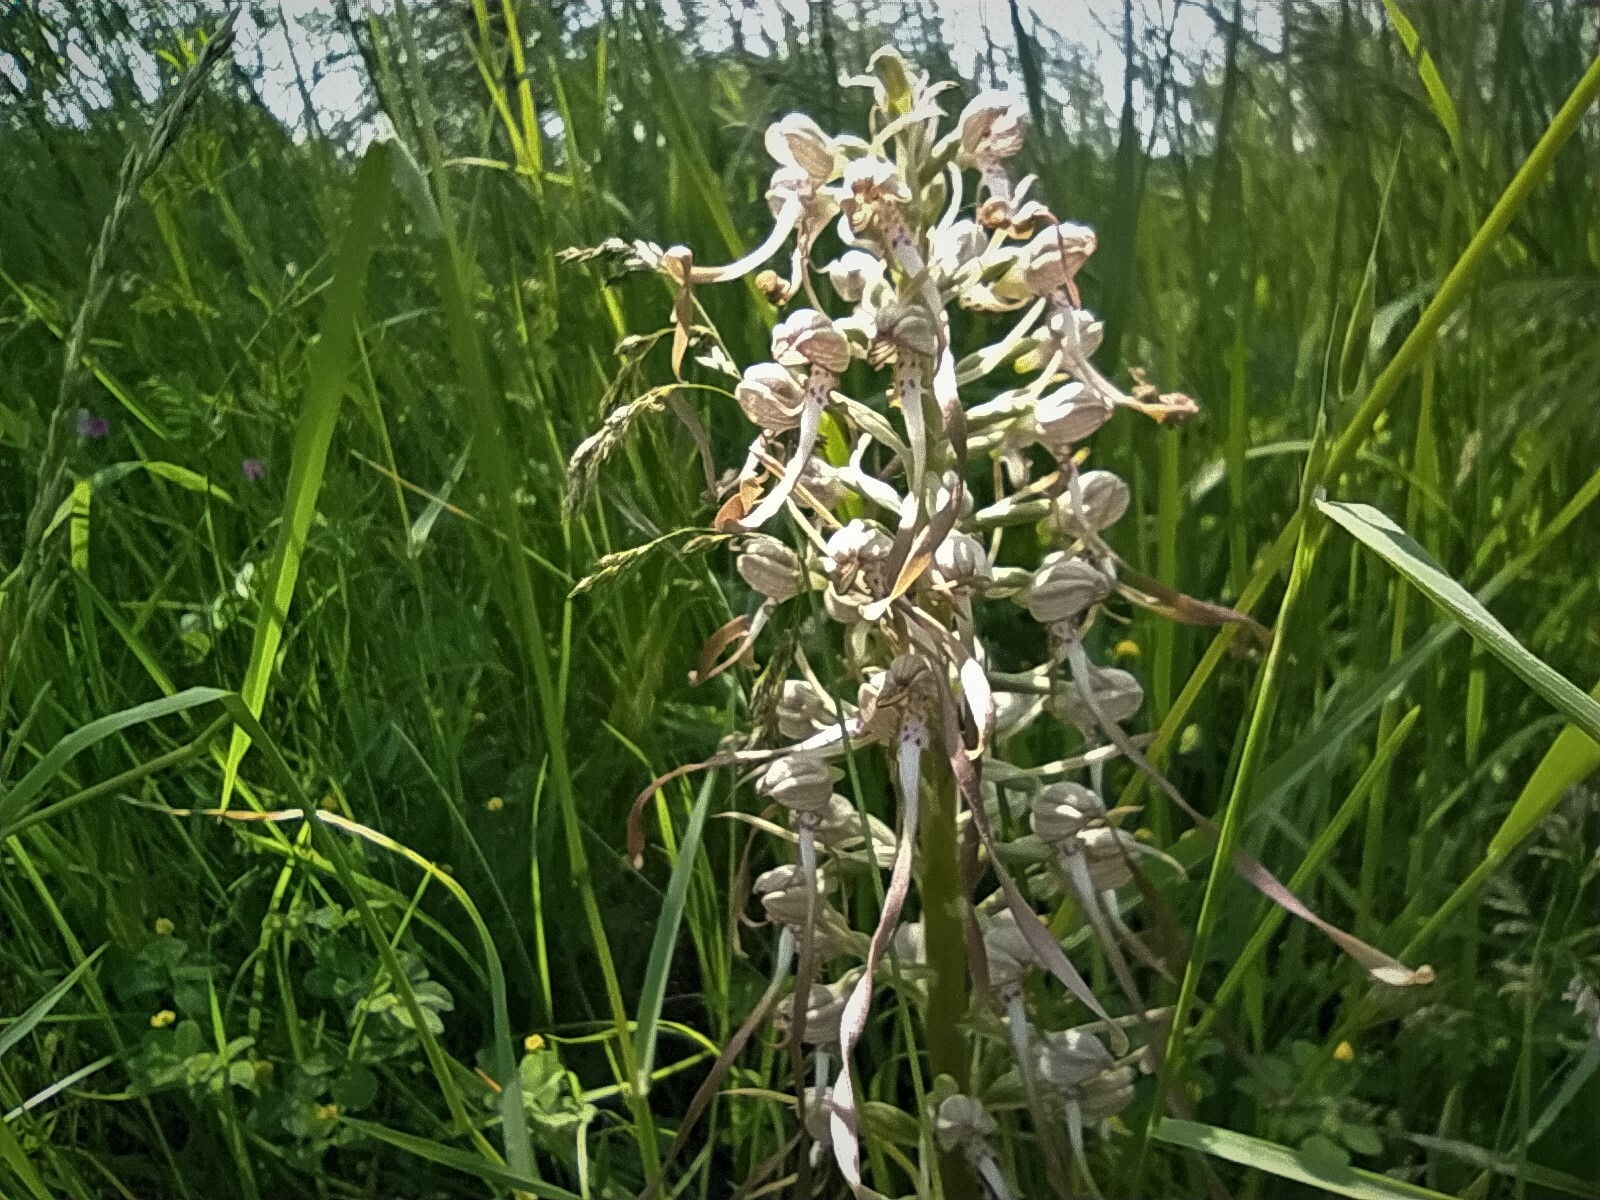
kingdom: Plantae
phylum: Tracheophyta
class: Liliopsida
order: Asparagales
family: Orchidaceae
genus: Himantoglossum
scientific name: Himantoglossum hircinum
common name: Lizard orchid
